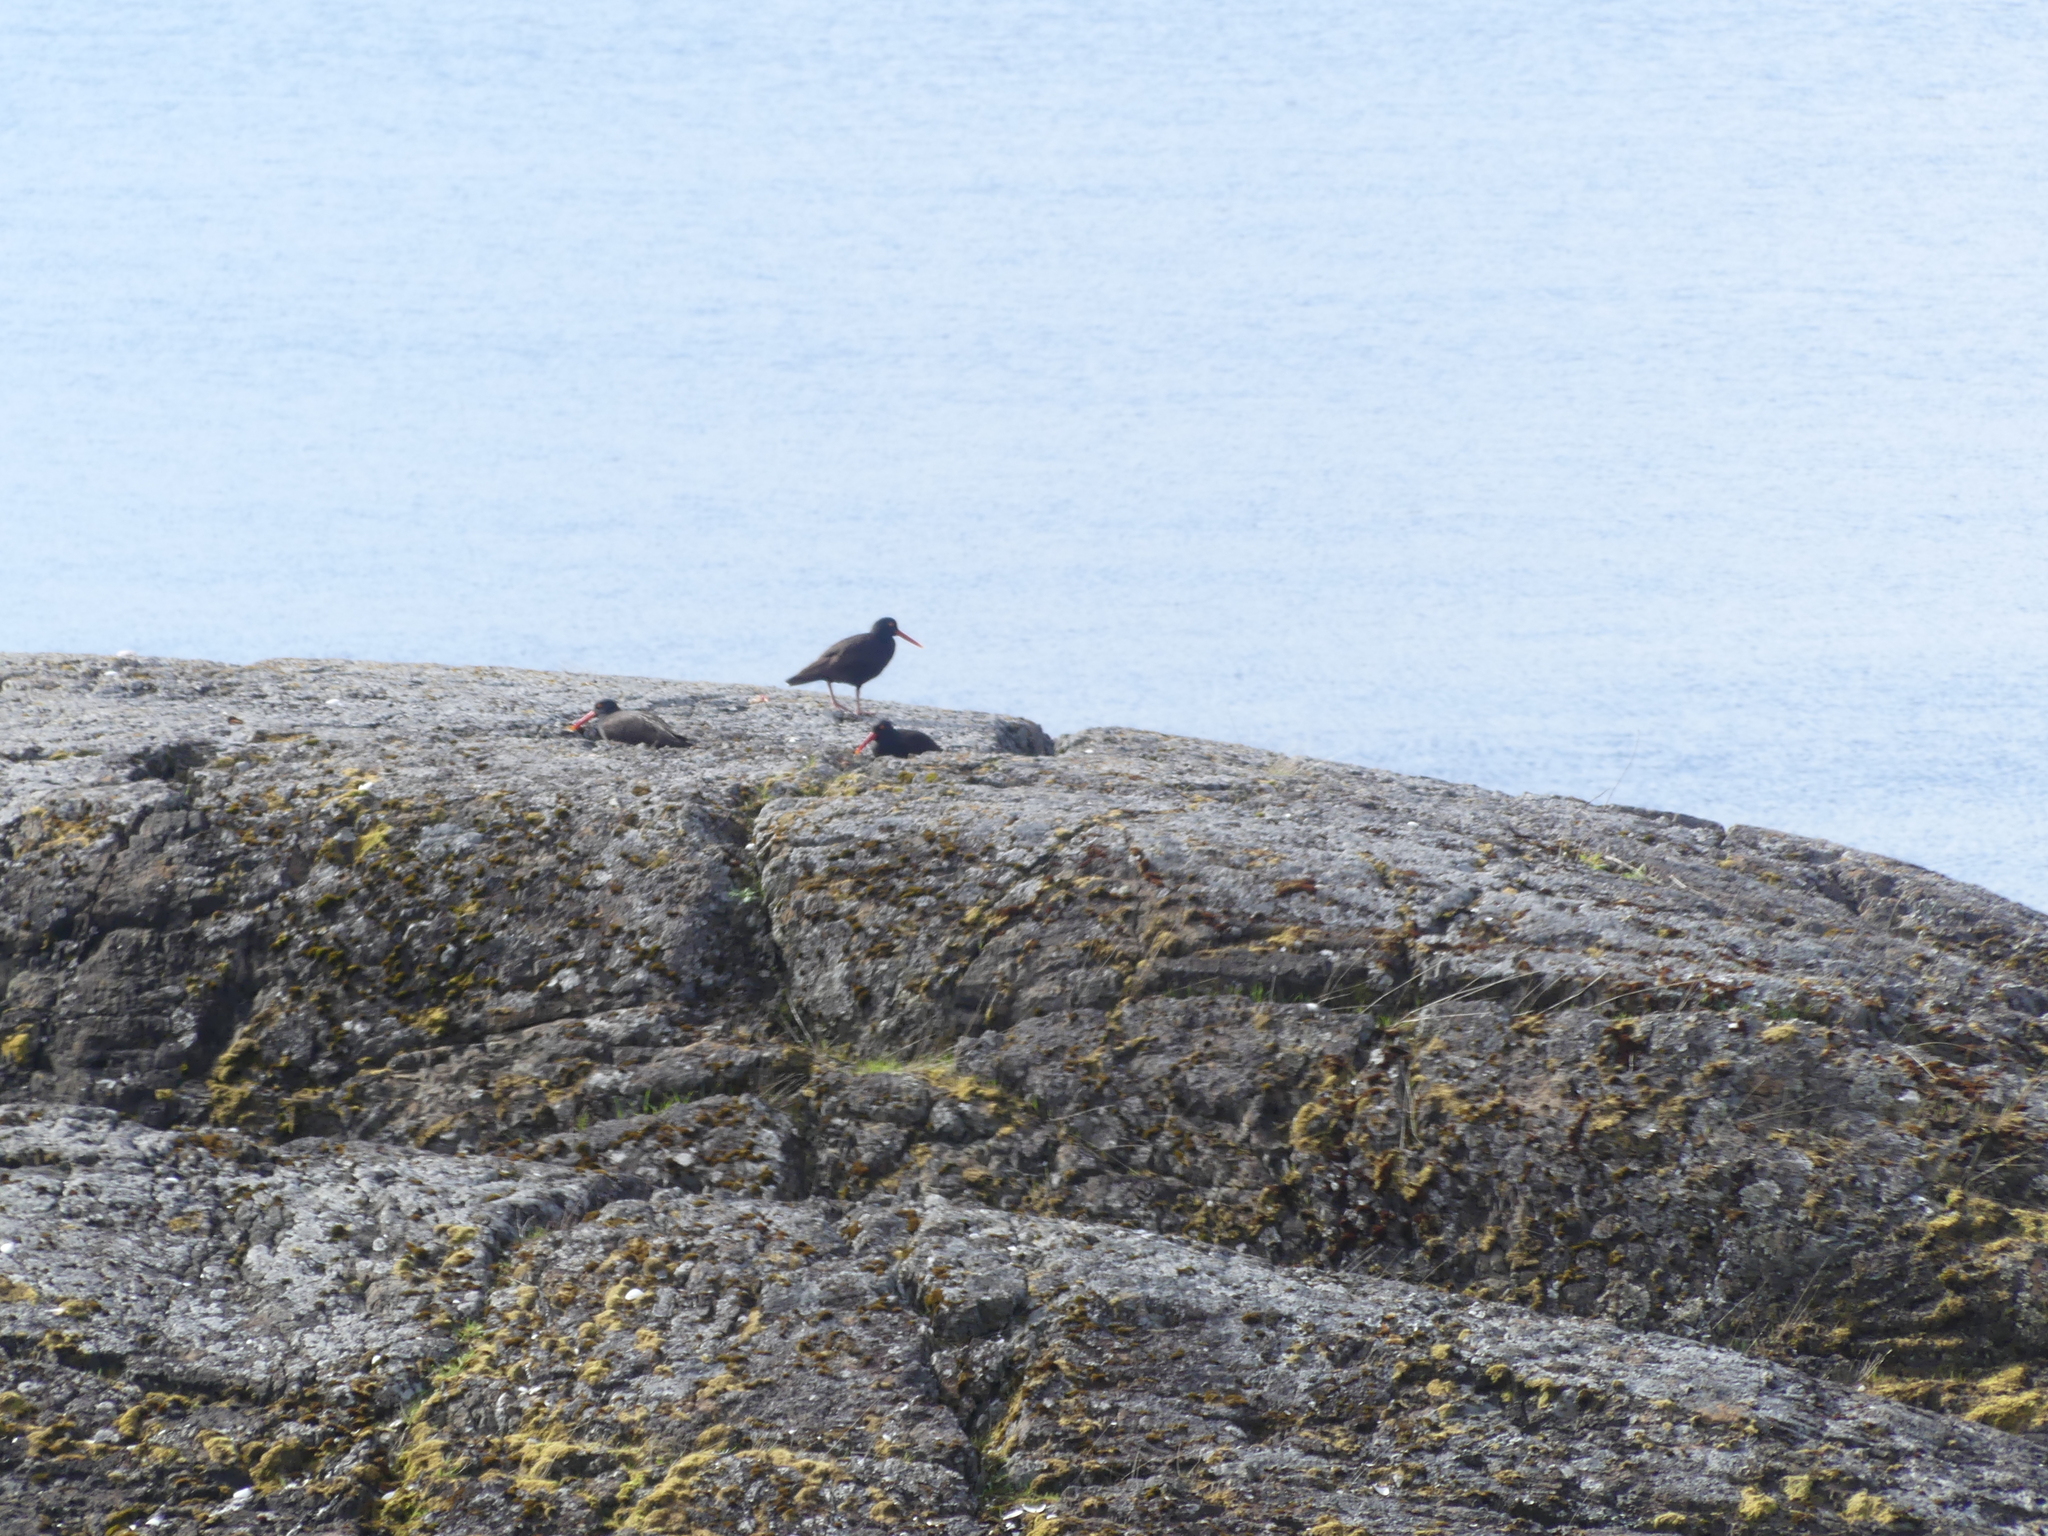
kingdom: Animalia
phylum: Chordata
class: Aves
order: Charadriiformes
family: Haematopodidae
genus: Haematopus
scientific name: Haematopus bachmani
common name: Black oystercatcher
